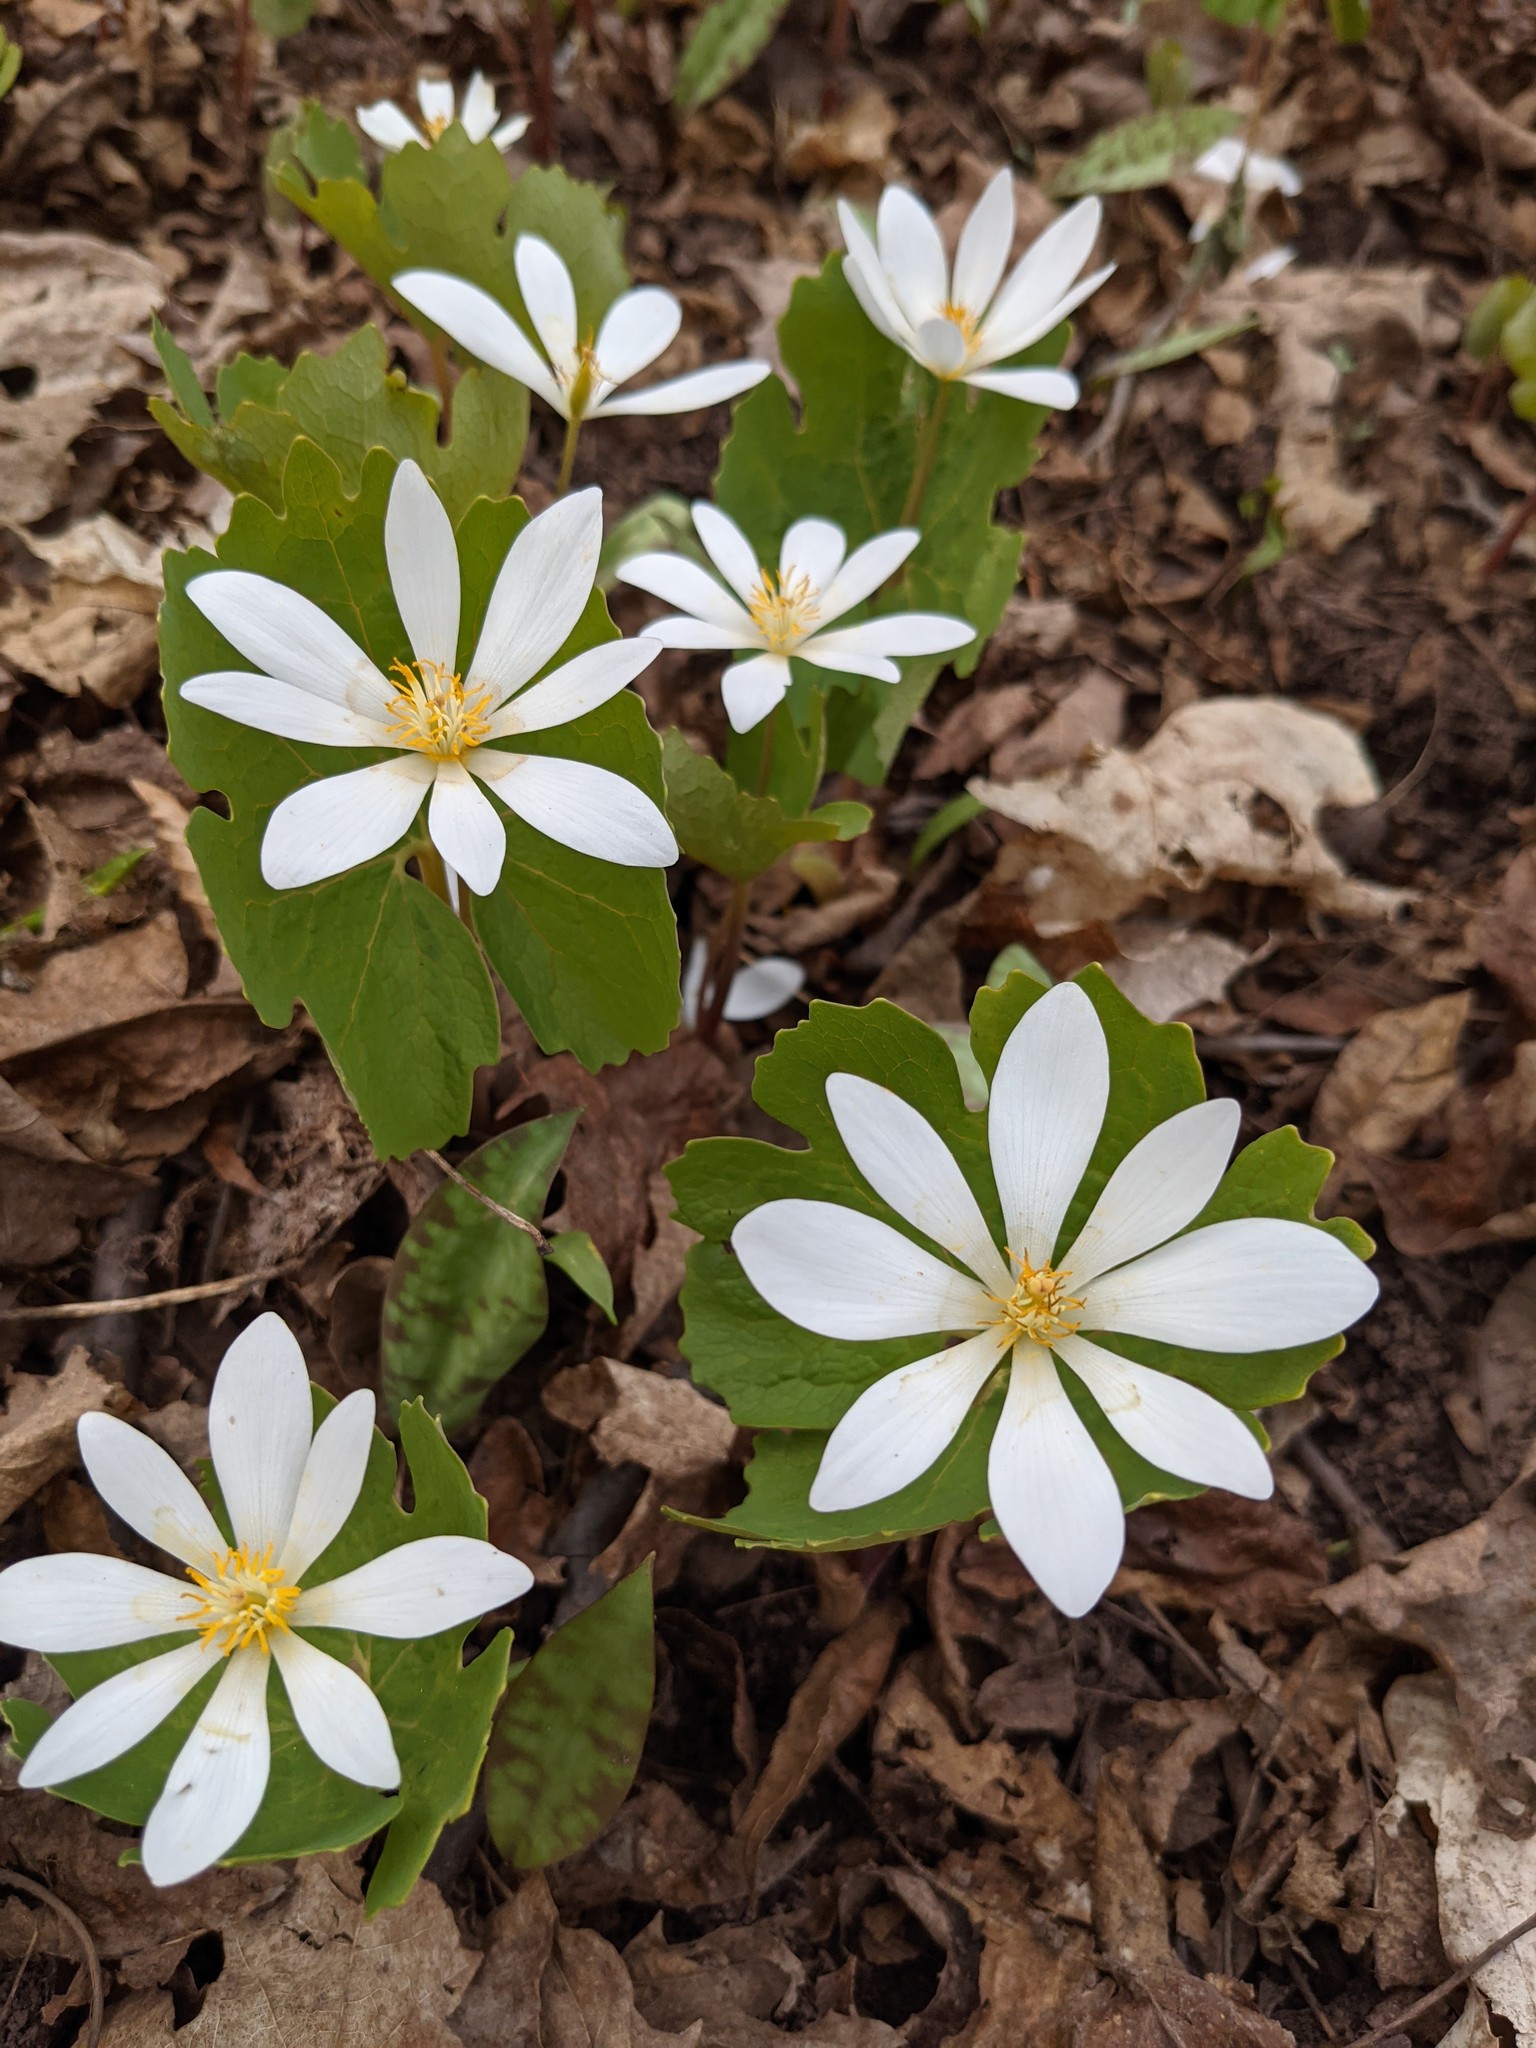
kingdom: Plantae
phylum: Tracheophyta
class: Magnoliopsida
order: Ranunculales
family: Papaveraceae
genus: Sanguinaria
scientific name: Sanguinaria canadensis
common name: Bloodroot
